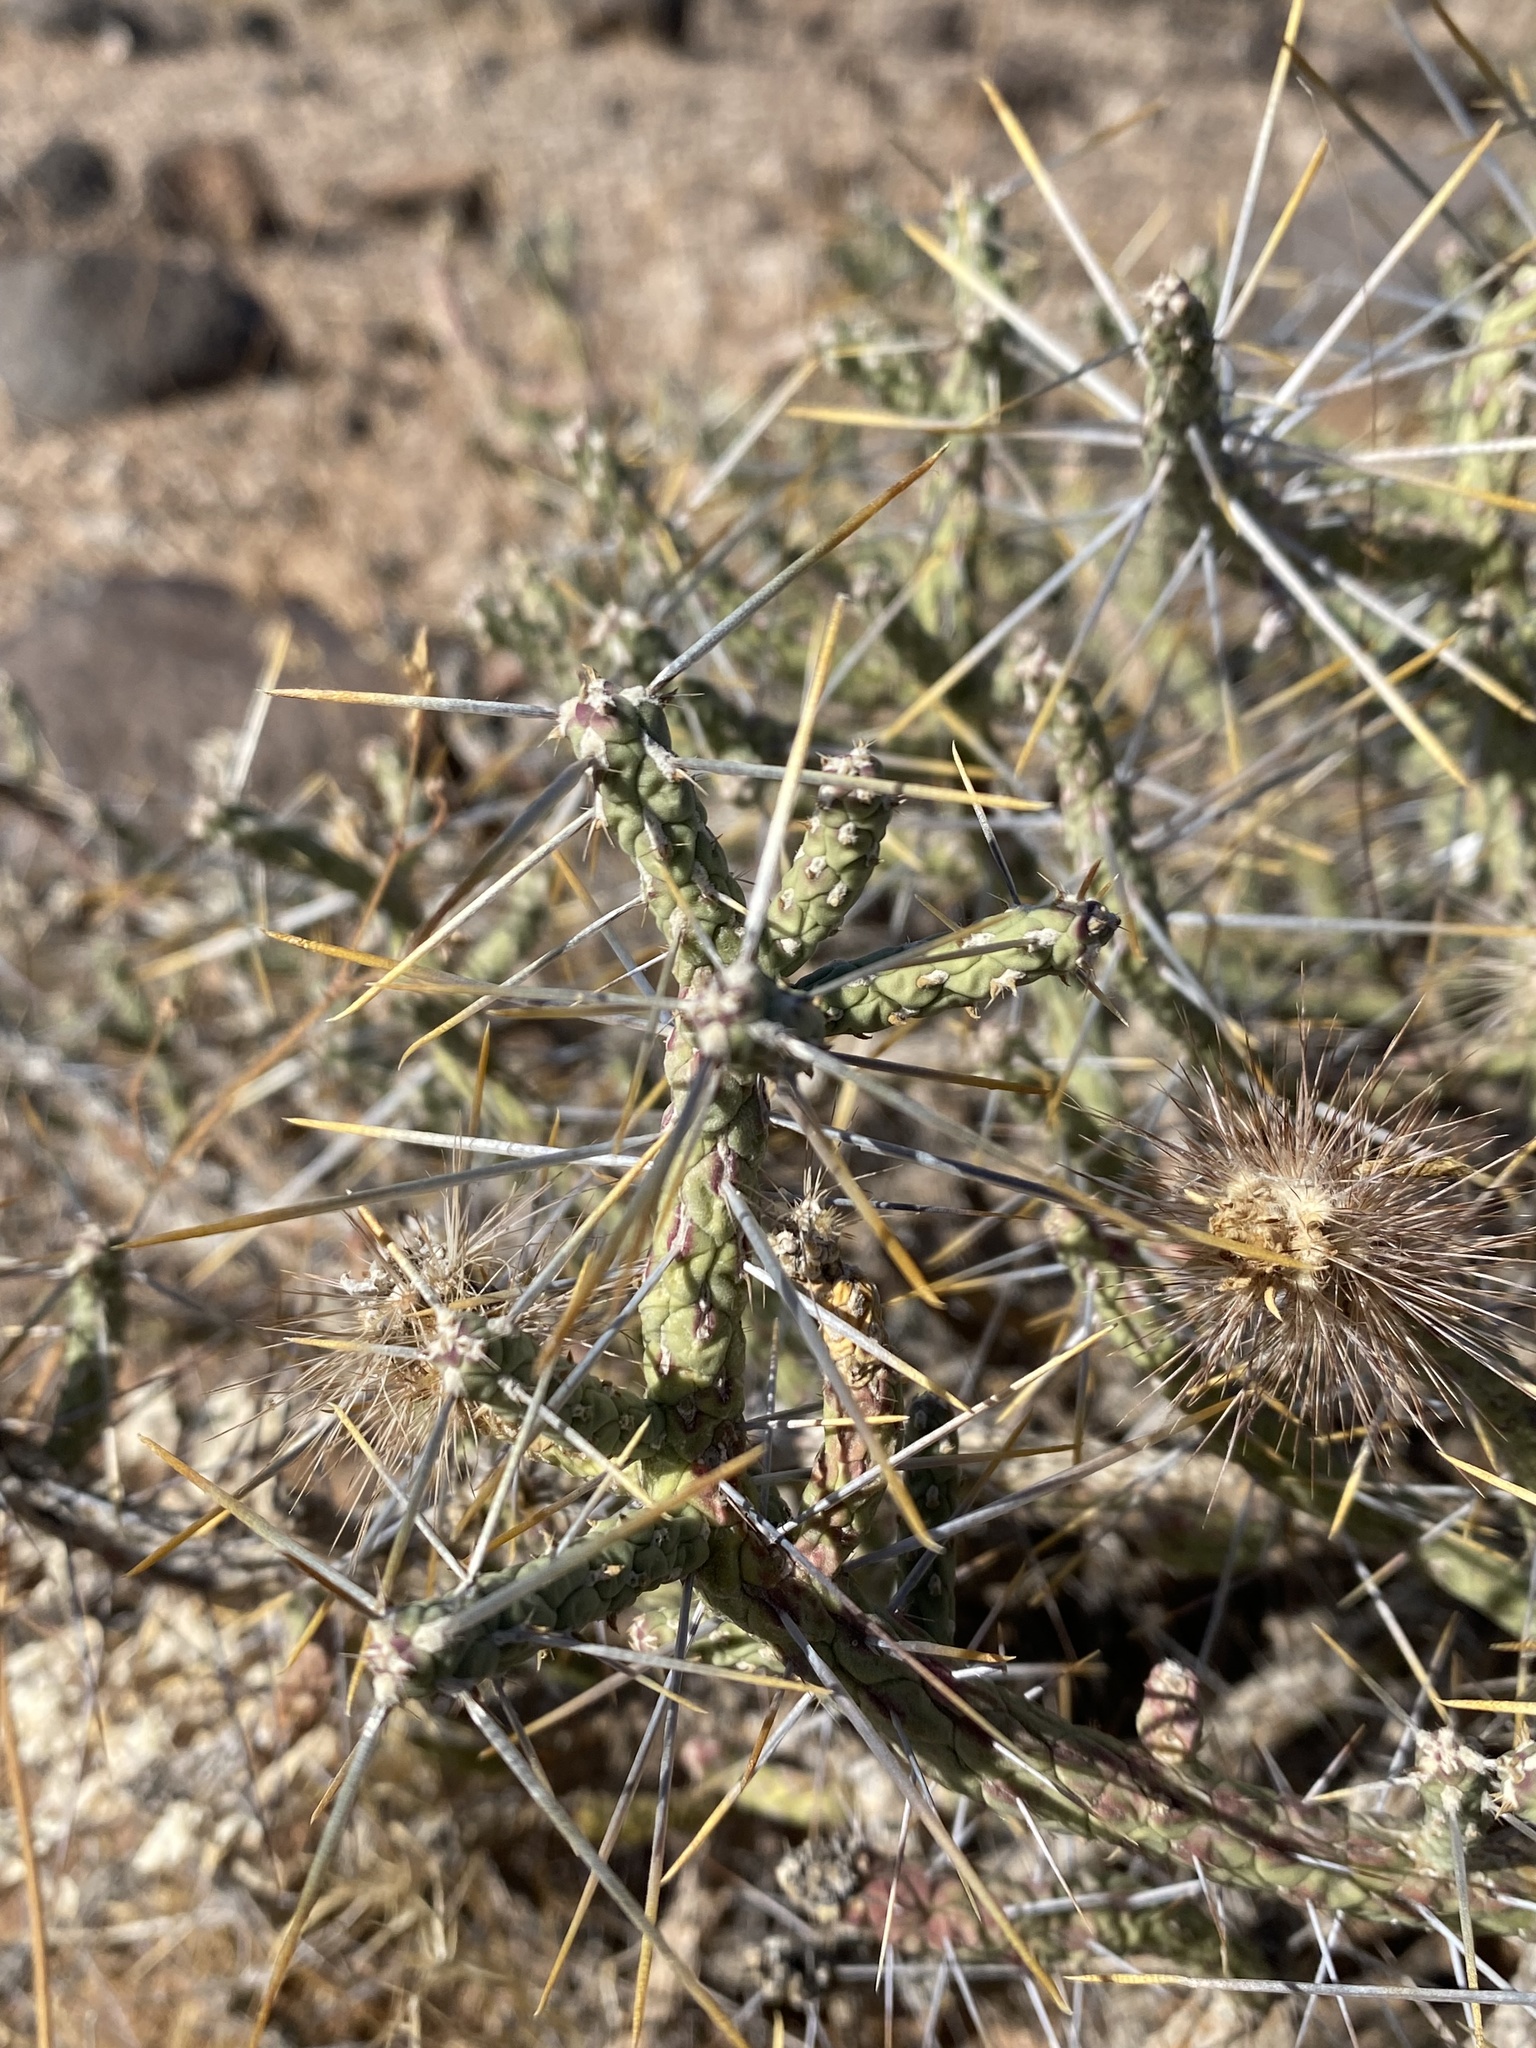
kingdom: Plantae
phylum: Tracheophyta
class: Magnoliopsida
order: Caryophyllales
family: Cactaceae
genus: Cylindropuntia
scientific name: Cylindropuntia ramosissima
